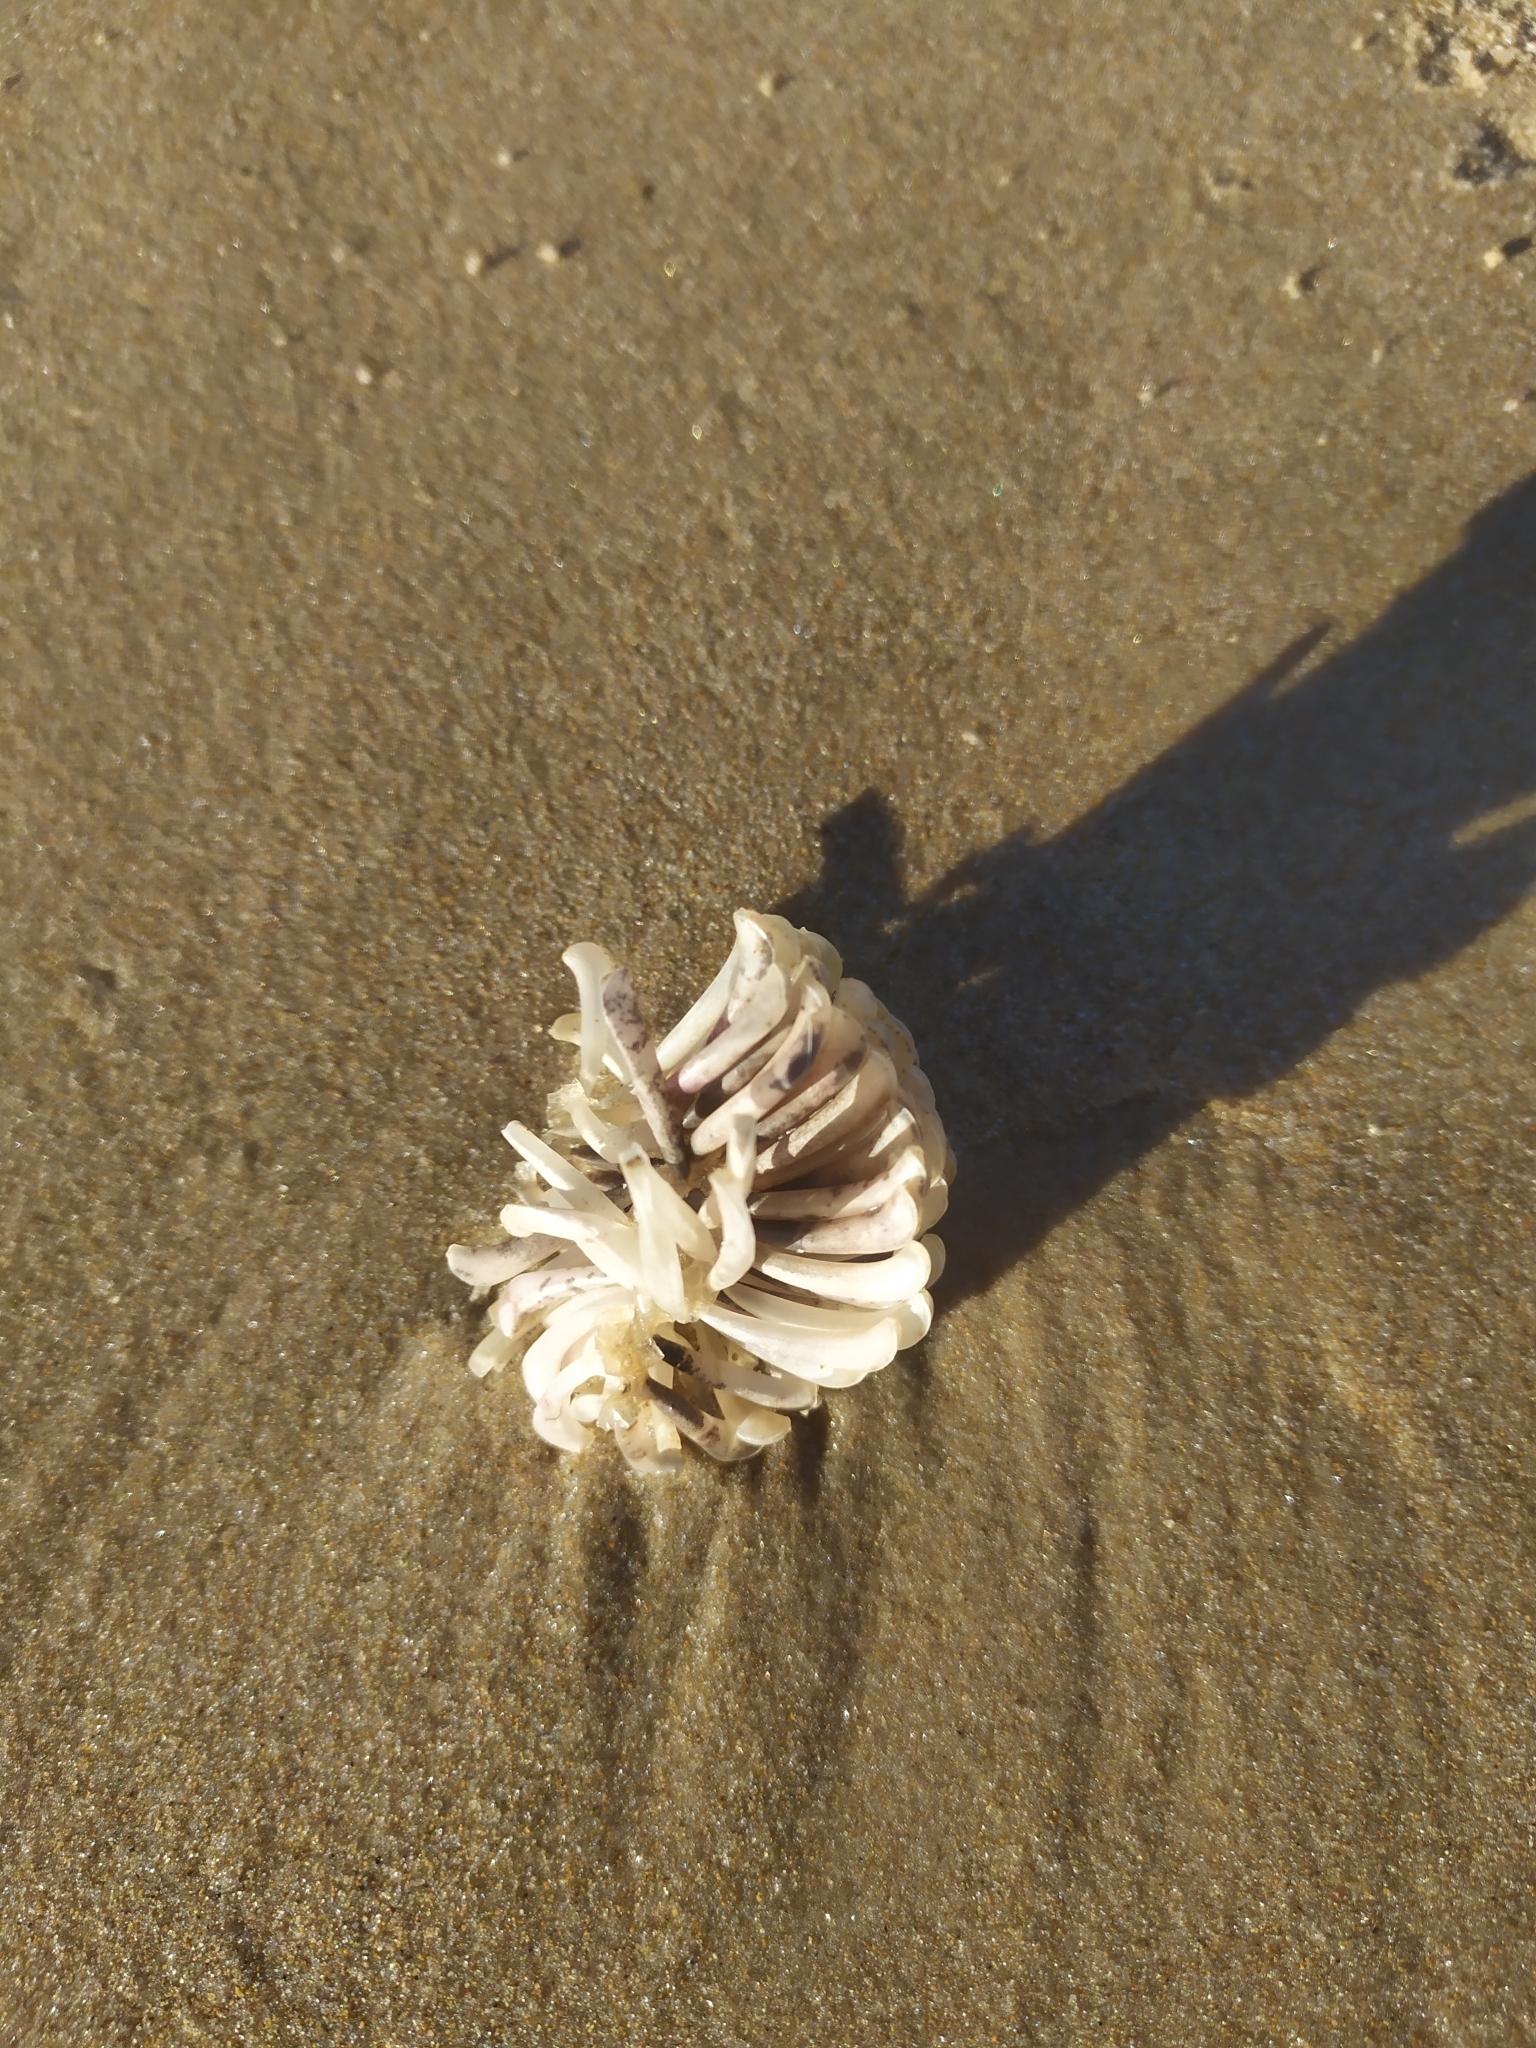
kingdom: Animalia
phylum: Mollusca
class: Gastropoda
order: Neogastropoda
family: Muricidae
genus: Rapana
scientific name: Rapana venosa
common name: Veined rapa whelk
